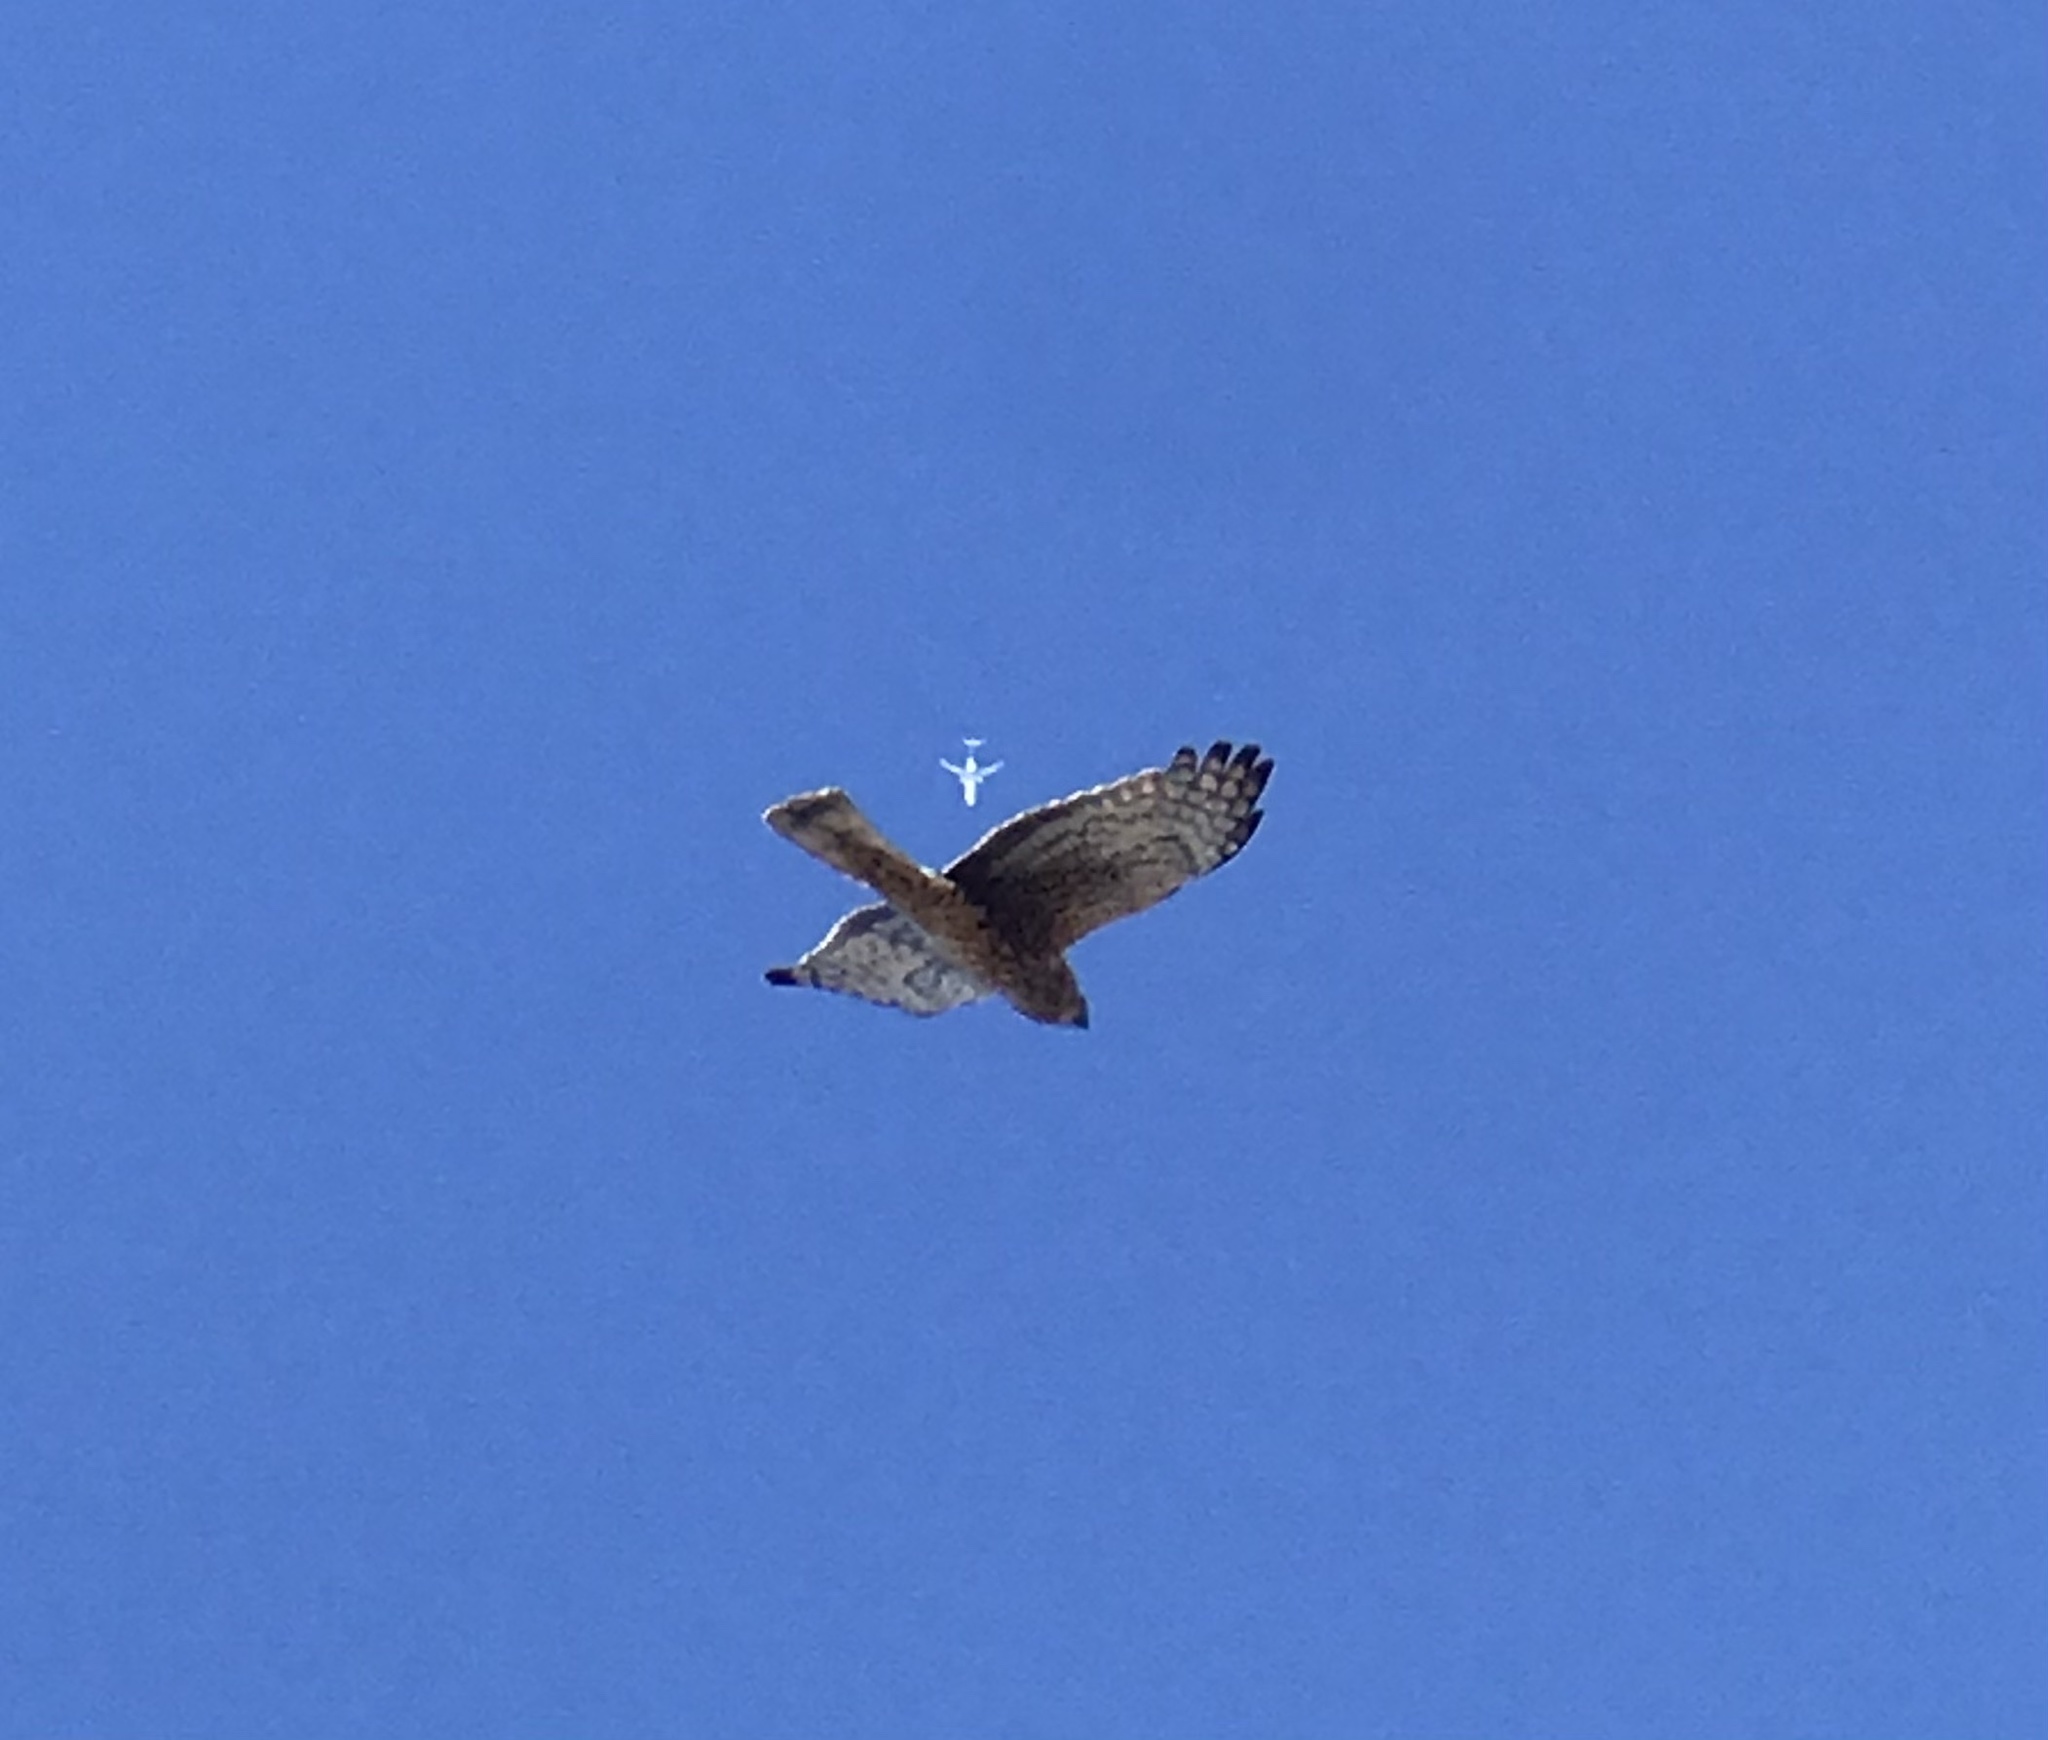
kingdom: Animalia
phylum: Chordata
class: Aves
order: Accipitriformes
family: Accipitridae
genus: Circus
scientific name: Circus cyaneus
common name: Hen harrier
